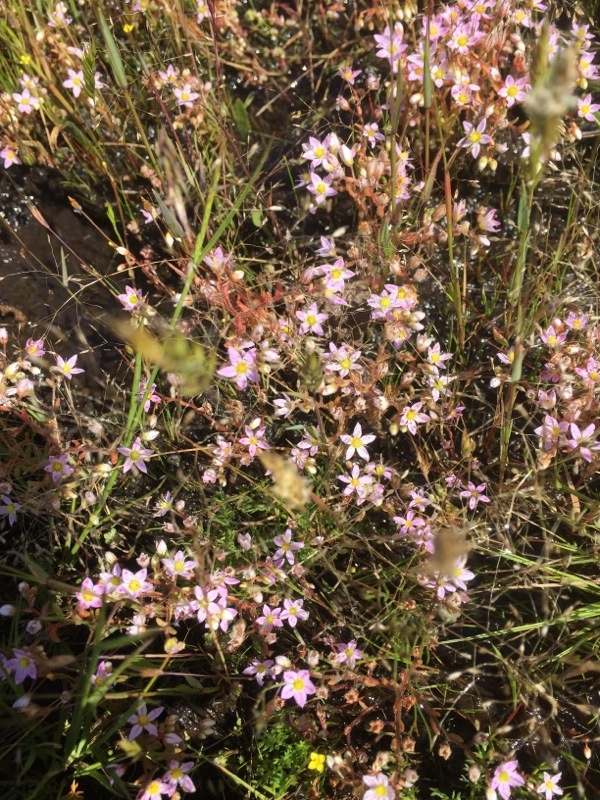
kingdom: Plantae
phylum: Tracheophyta
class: Magnoliopsida
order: Saxifragales
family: Crassulaceae
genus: Sedum
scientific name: Sedum maireanum
